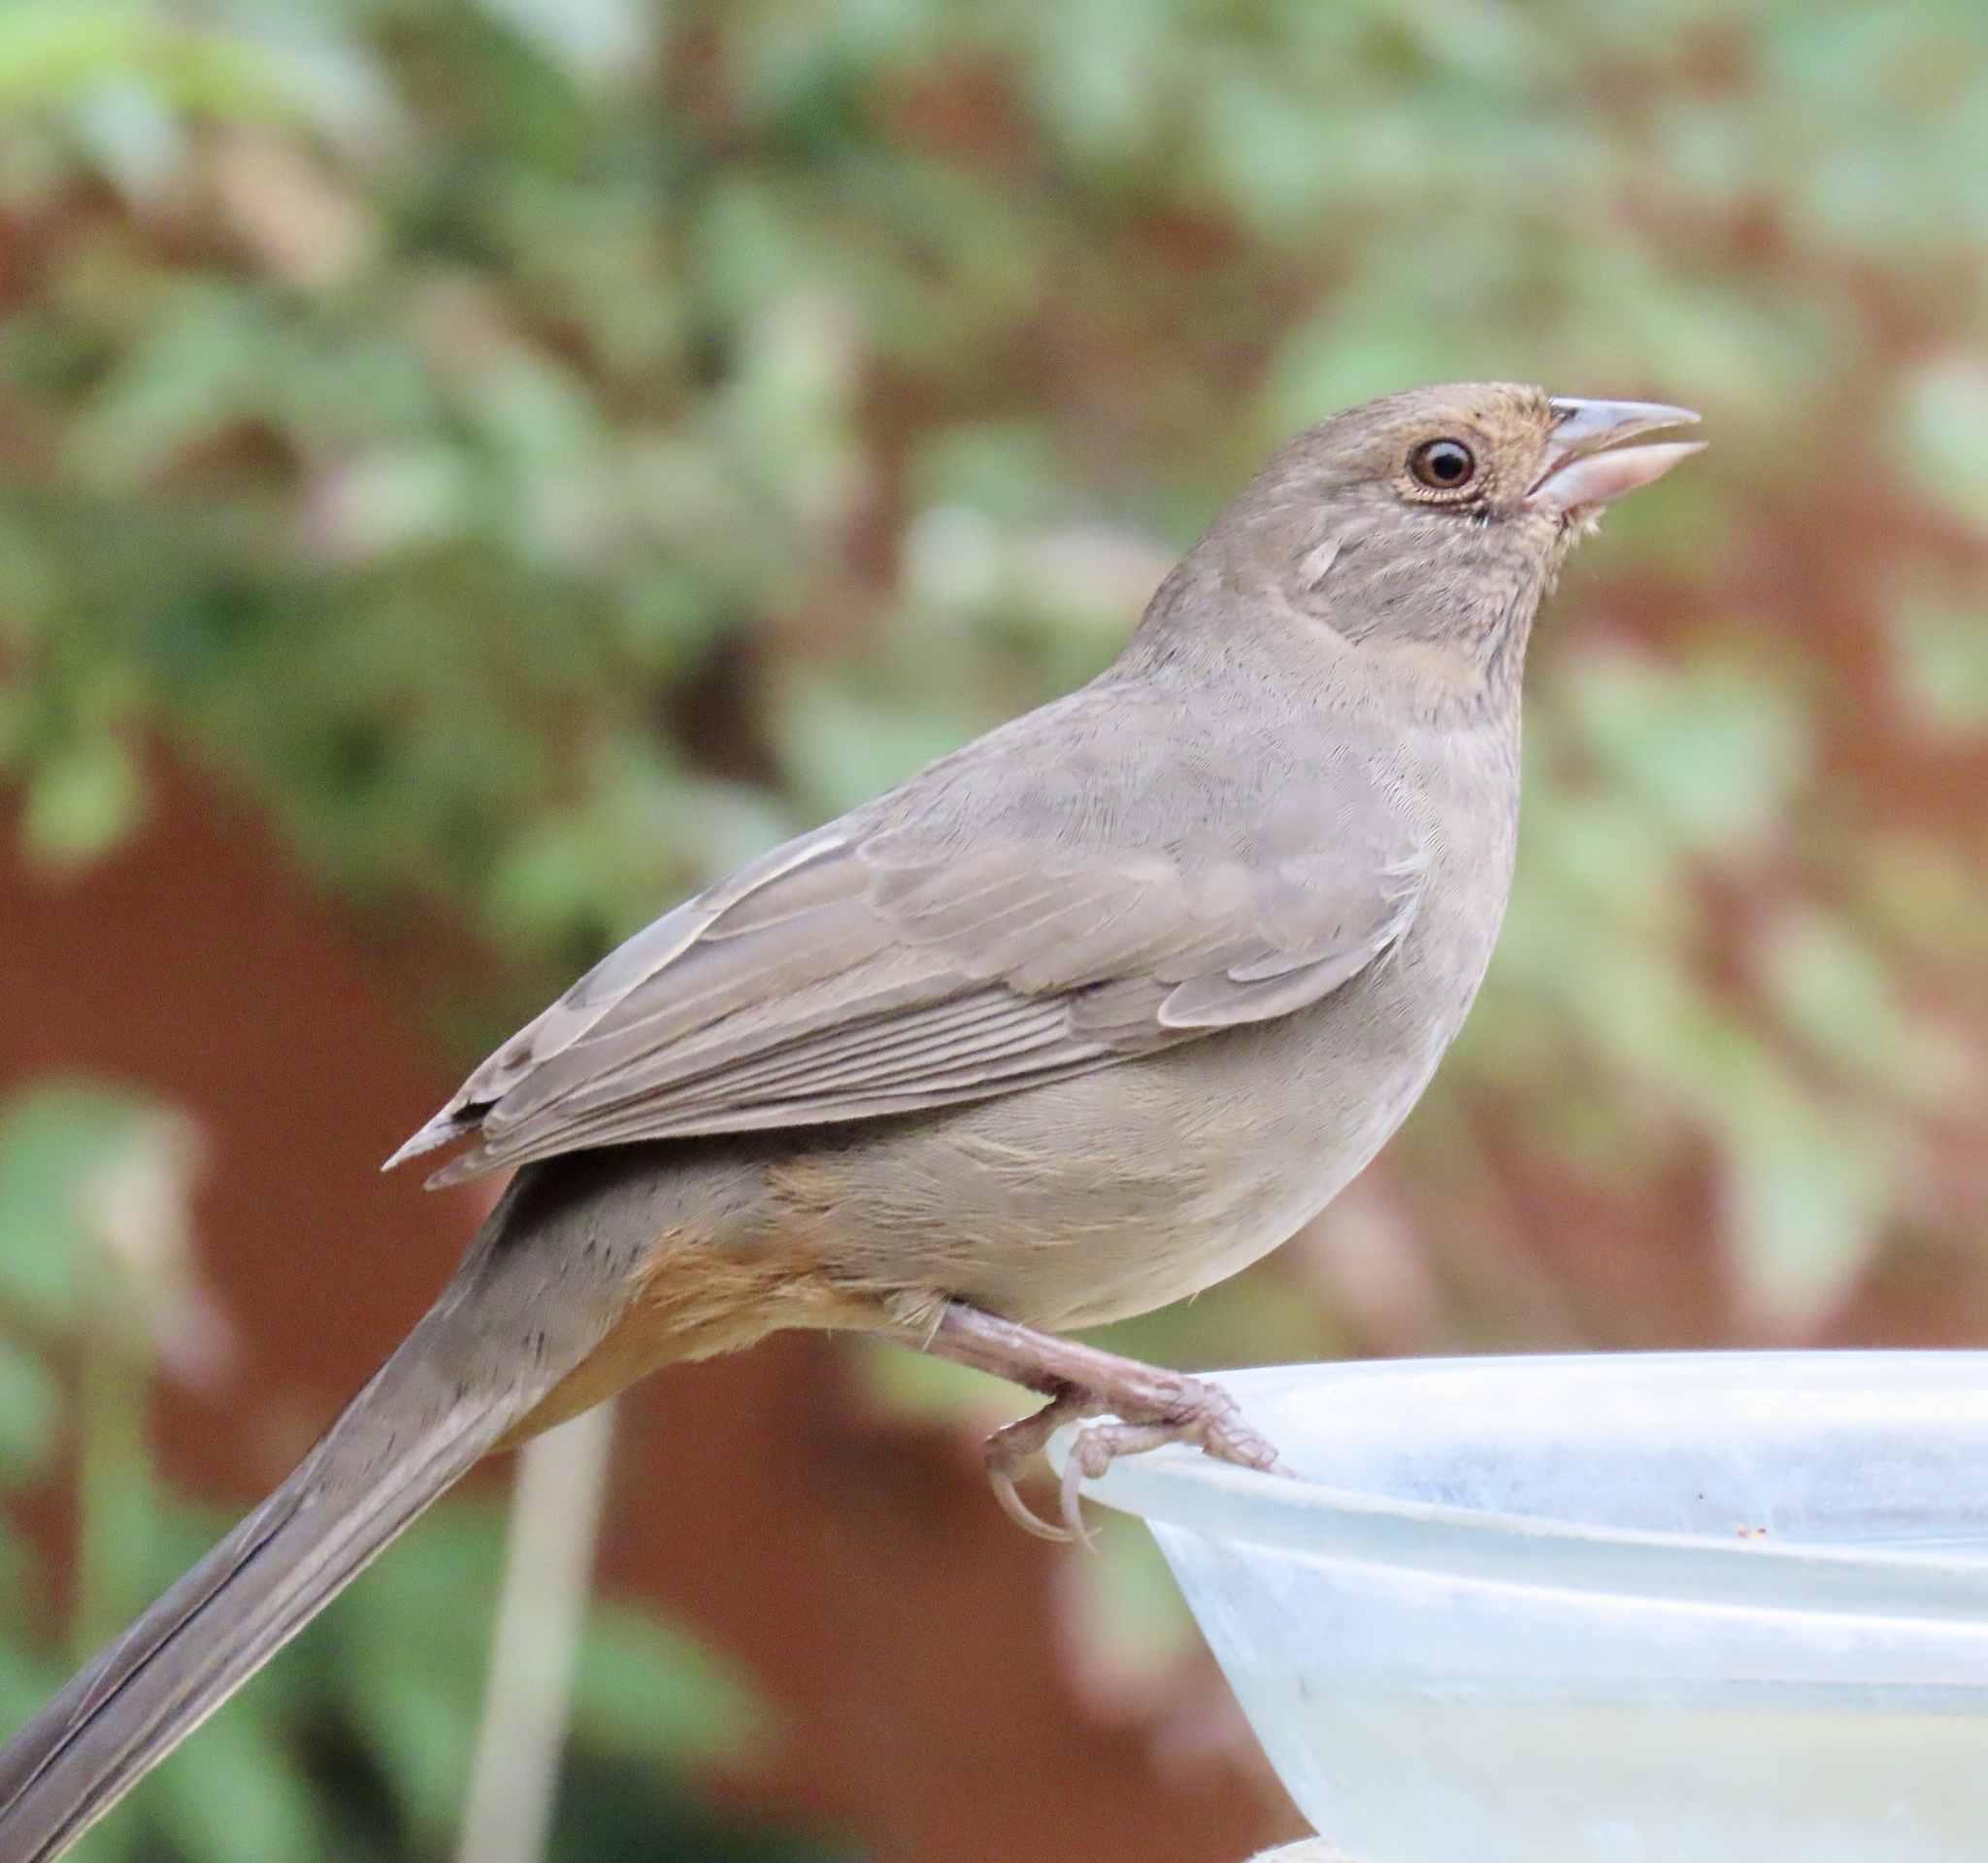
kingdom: Animalia
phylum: Chordata
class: Aves
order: Passeriformes
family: Passerellidae
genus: Melozone
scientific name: Melozone crissalis
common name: California towhee
